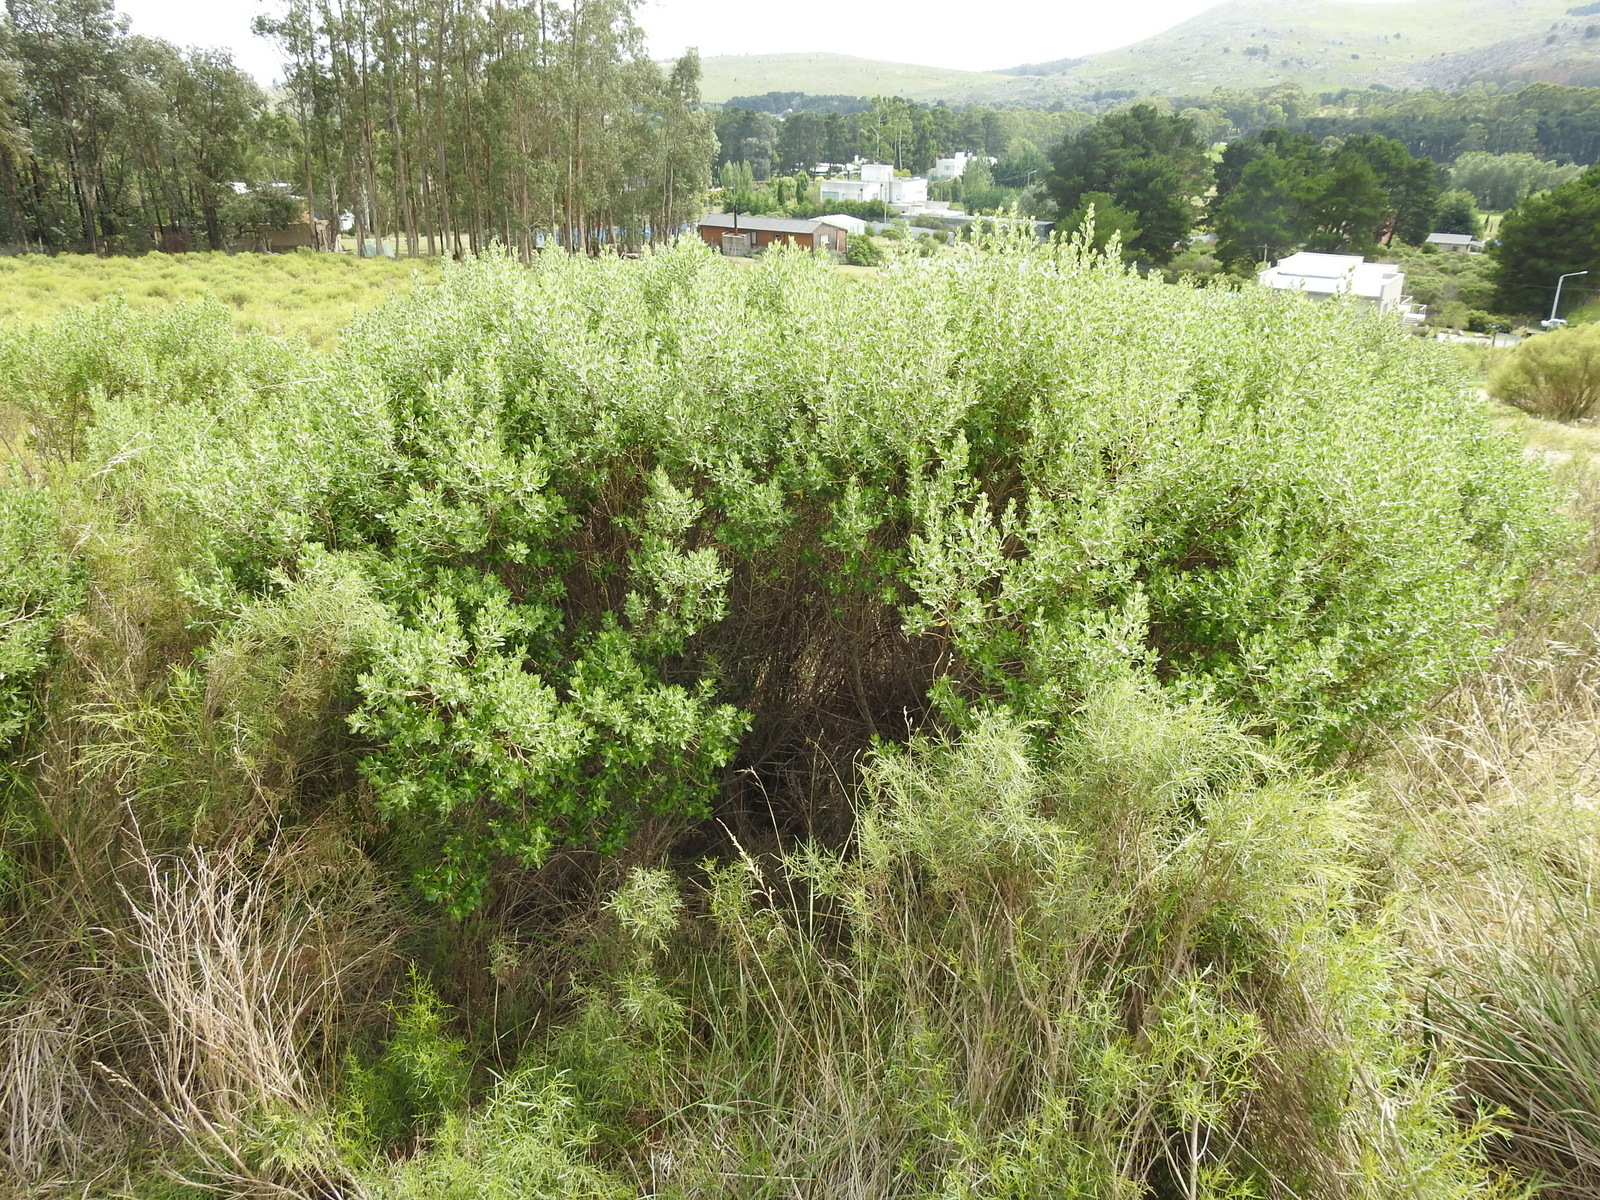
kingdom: Plantae
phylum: Tracheophyta
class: Magnoliopsida
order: Asterales
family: Asteraceae
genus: Baccharis
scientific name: Baccharis dracunculifolia
